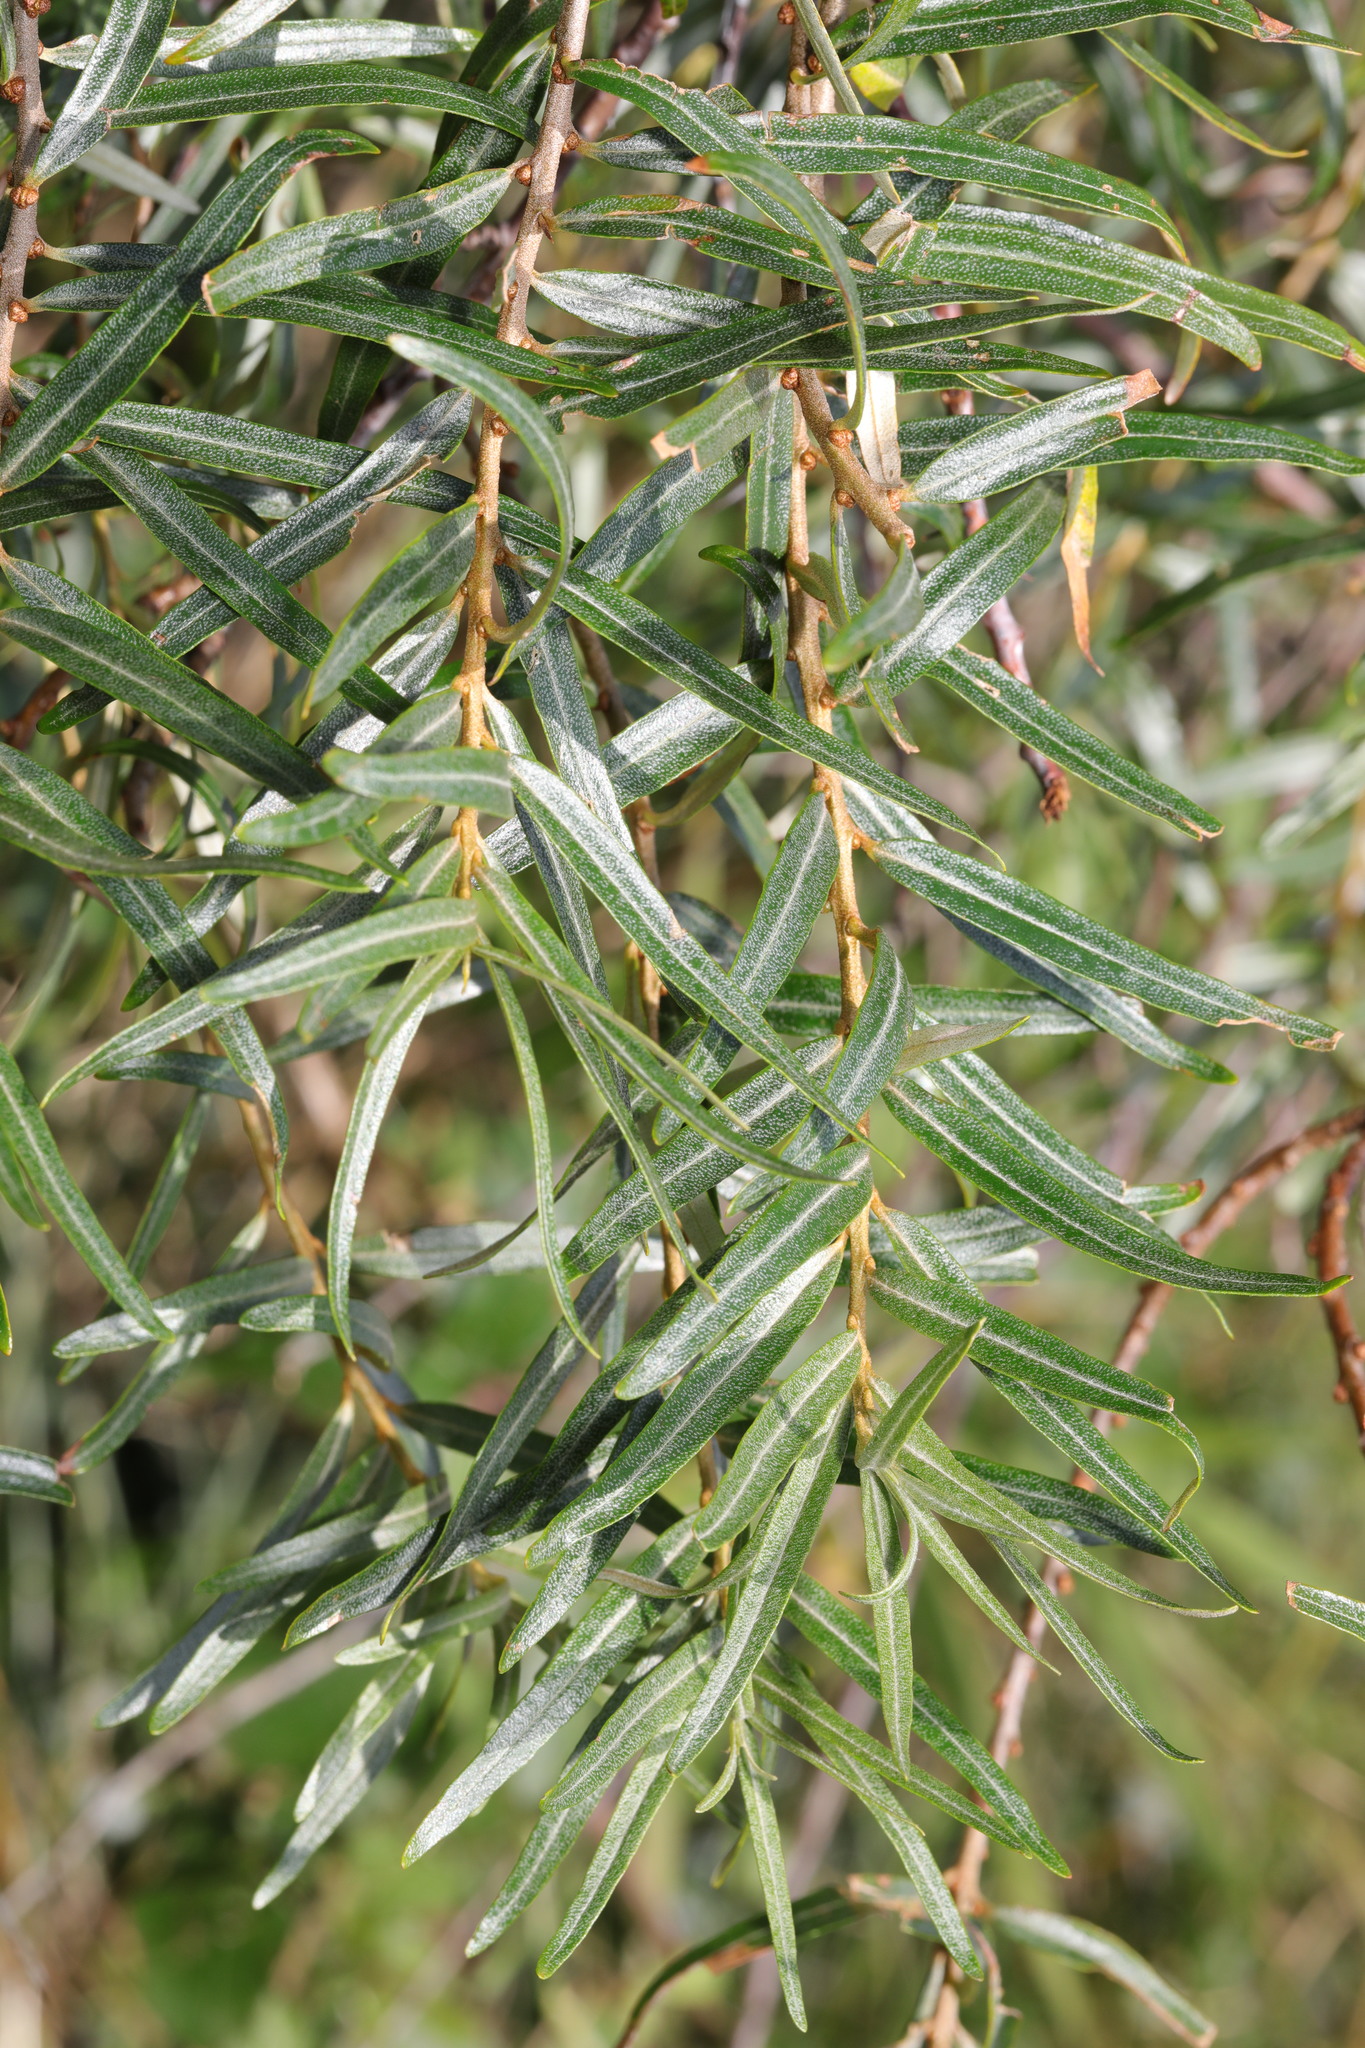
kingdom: Plantae
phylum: Tracheophyta
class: Magnoliopsida
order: Rosales
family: Elaeagnaceae
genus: Hippophae
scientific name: Hippophae rhamnoides
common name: Sea-buckthorn
